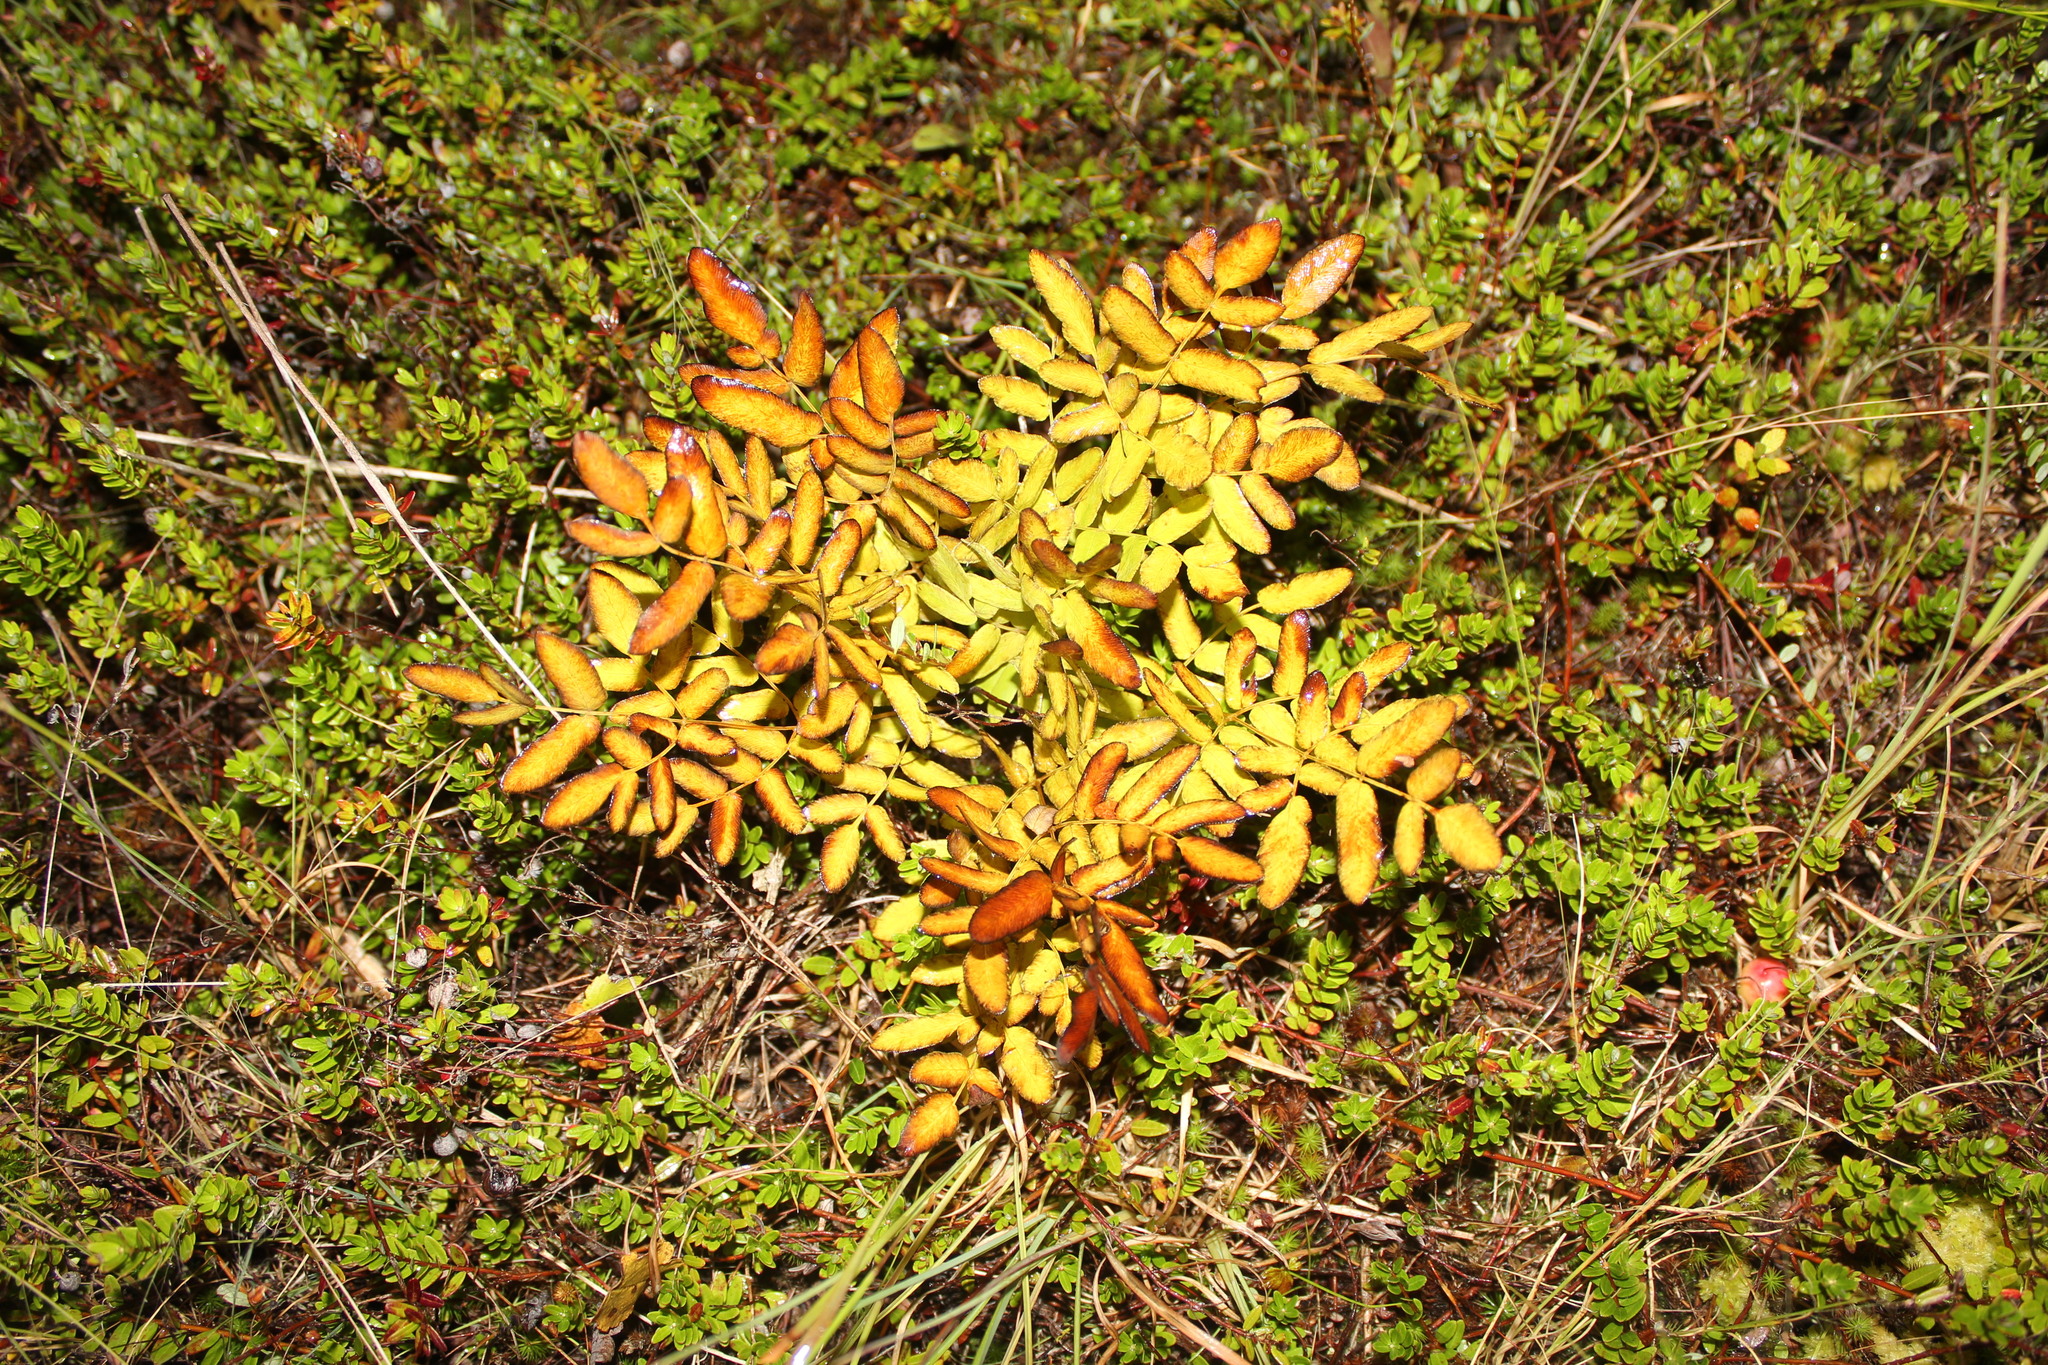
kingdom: Plantae
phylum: Tracheophyta
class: Polypodiopsida
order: Osmundales
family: Osmundaceae
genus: Osmunda
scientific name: Osmunda spectabilis
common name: American royal fern
